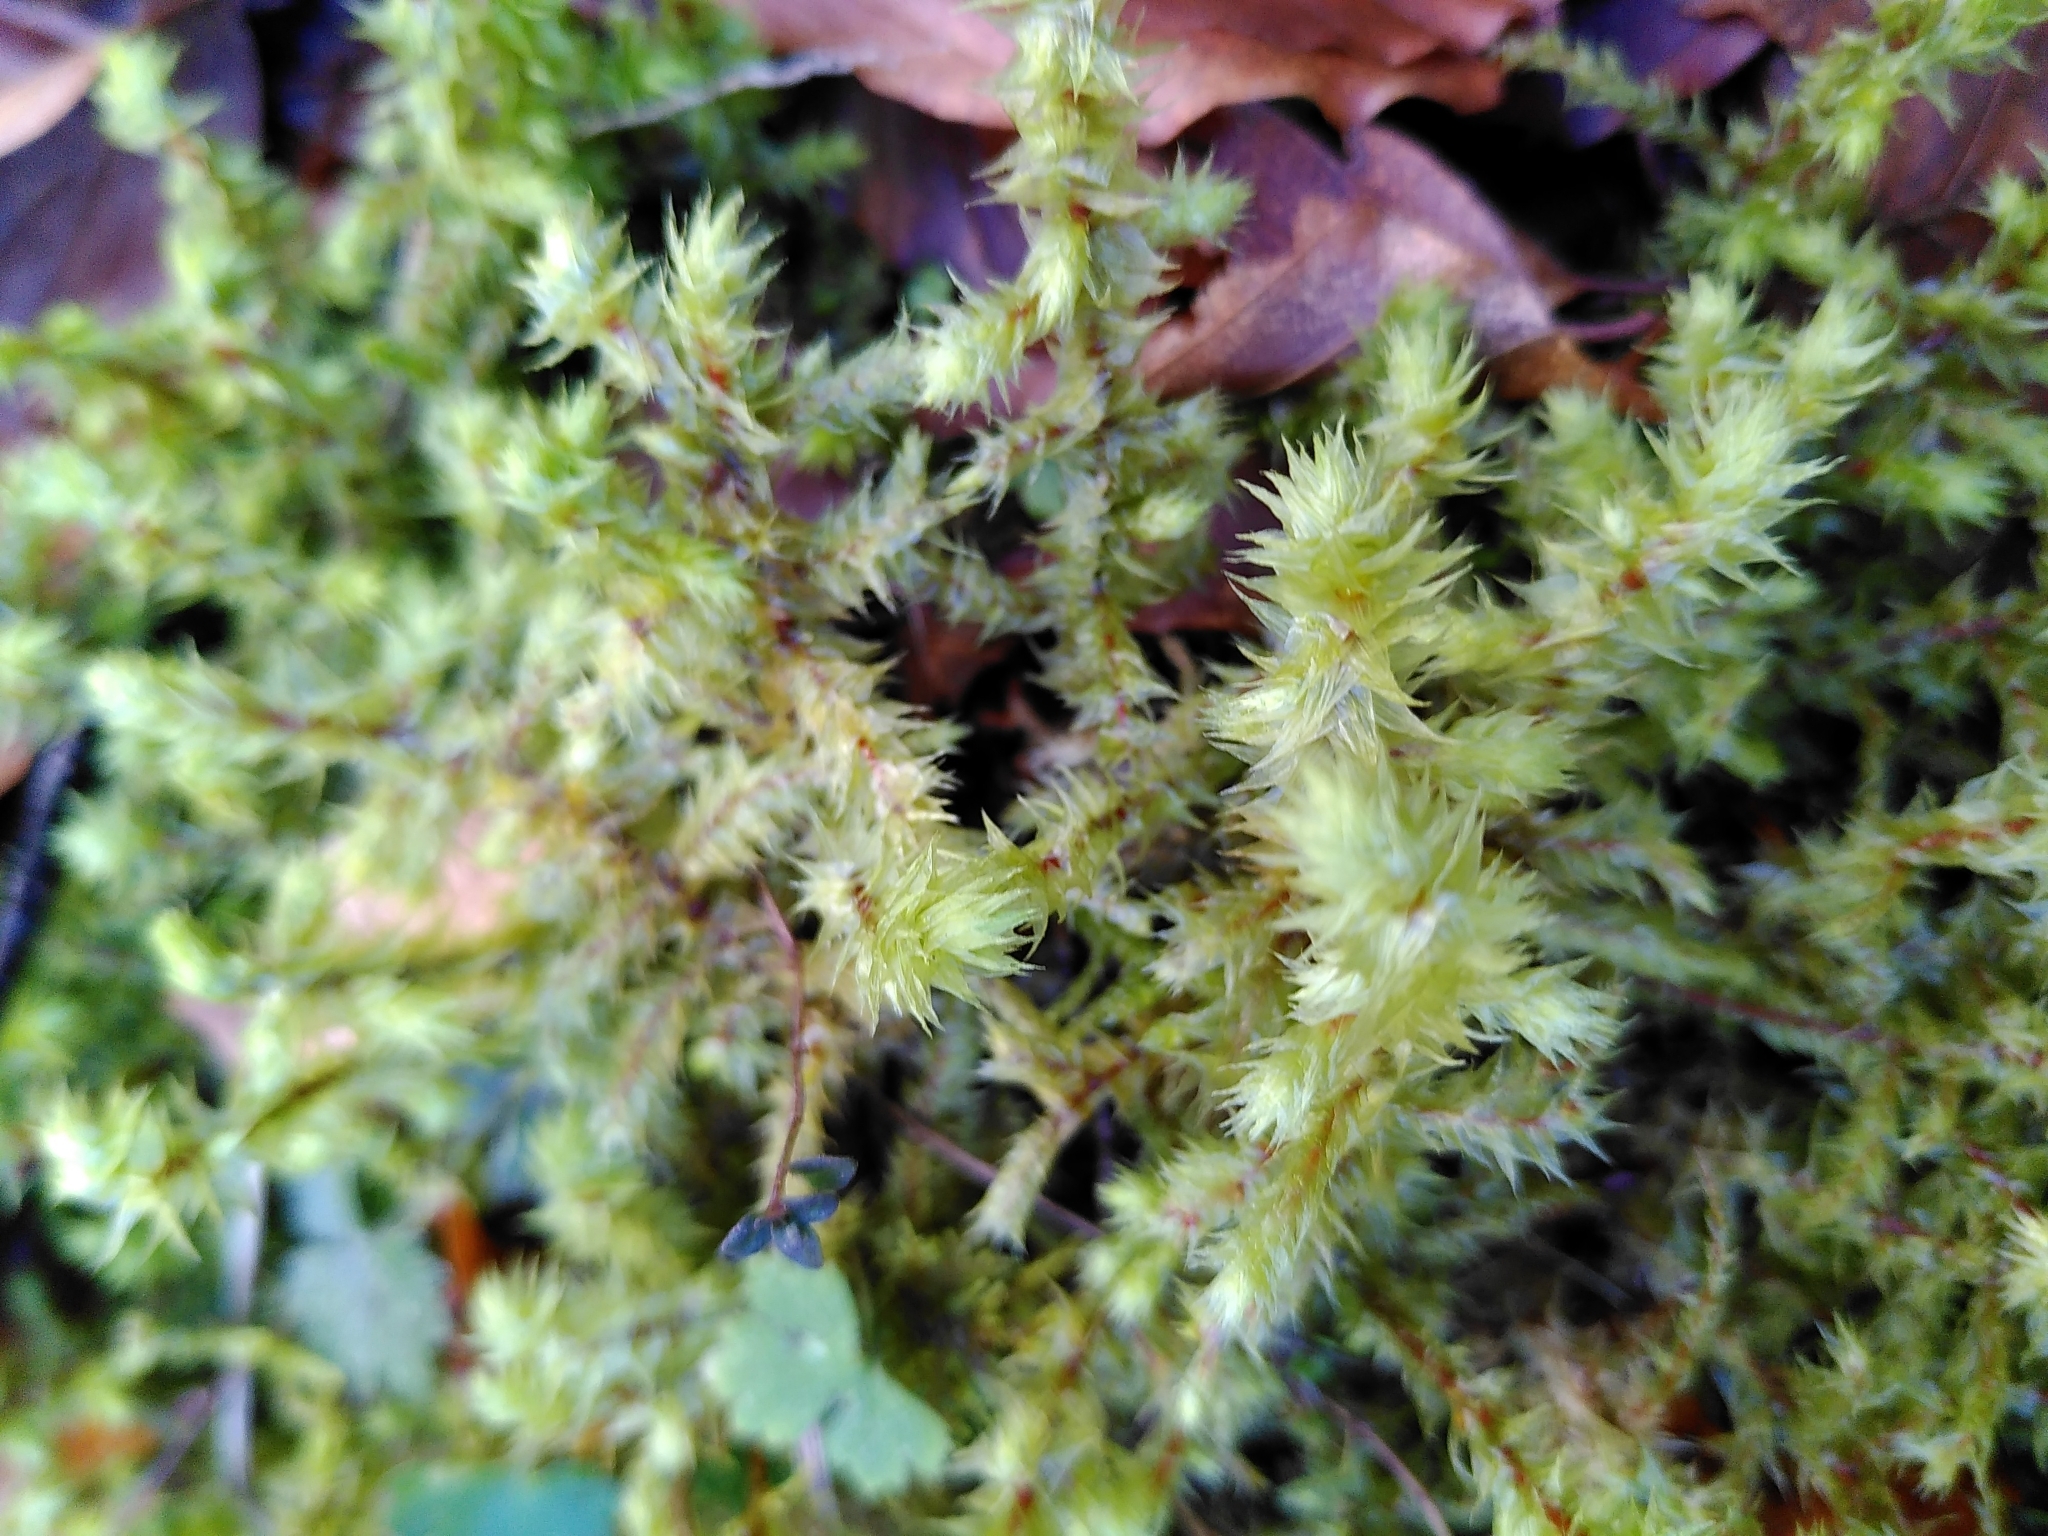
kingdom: Plantae
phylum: Bryophyta
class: Bryopsida
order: Hypnales
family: Hylocomiaceae
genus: Hylocomiadelphus
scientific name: Hylocomiadelphus triquetrus
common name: Rough goose neck moss
